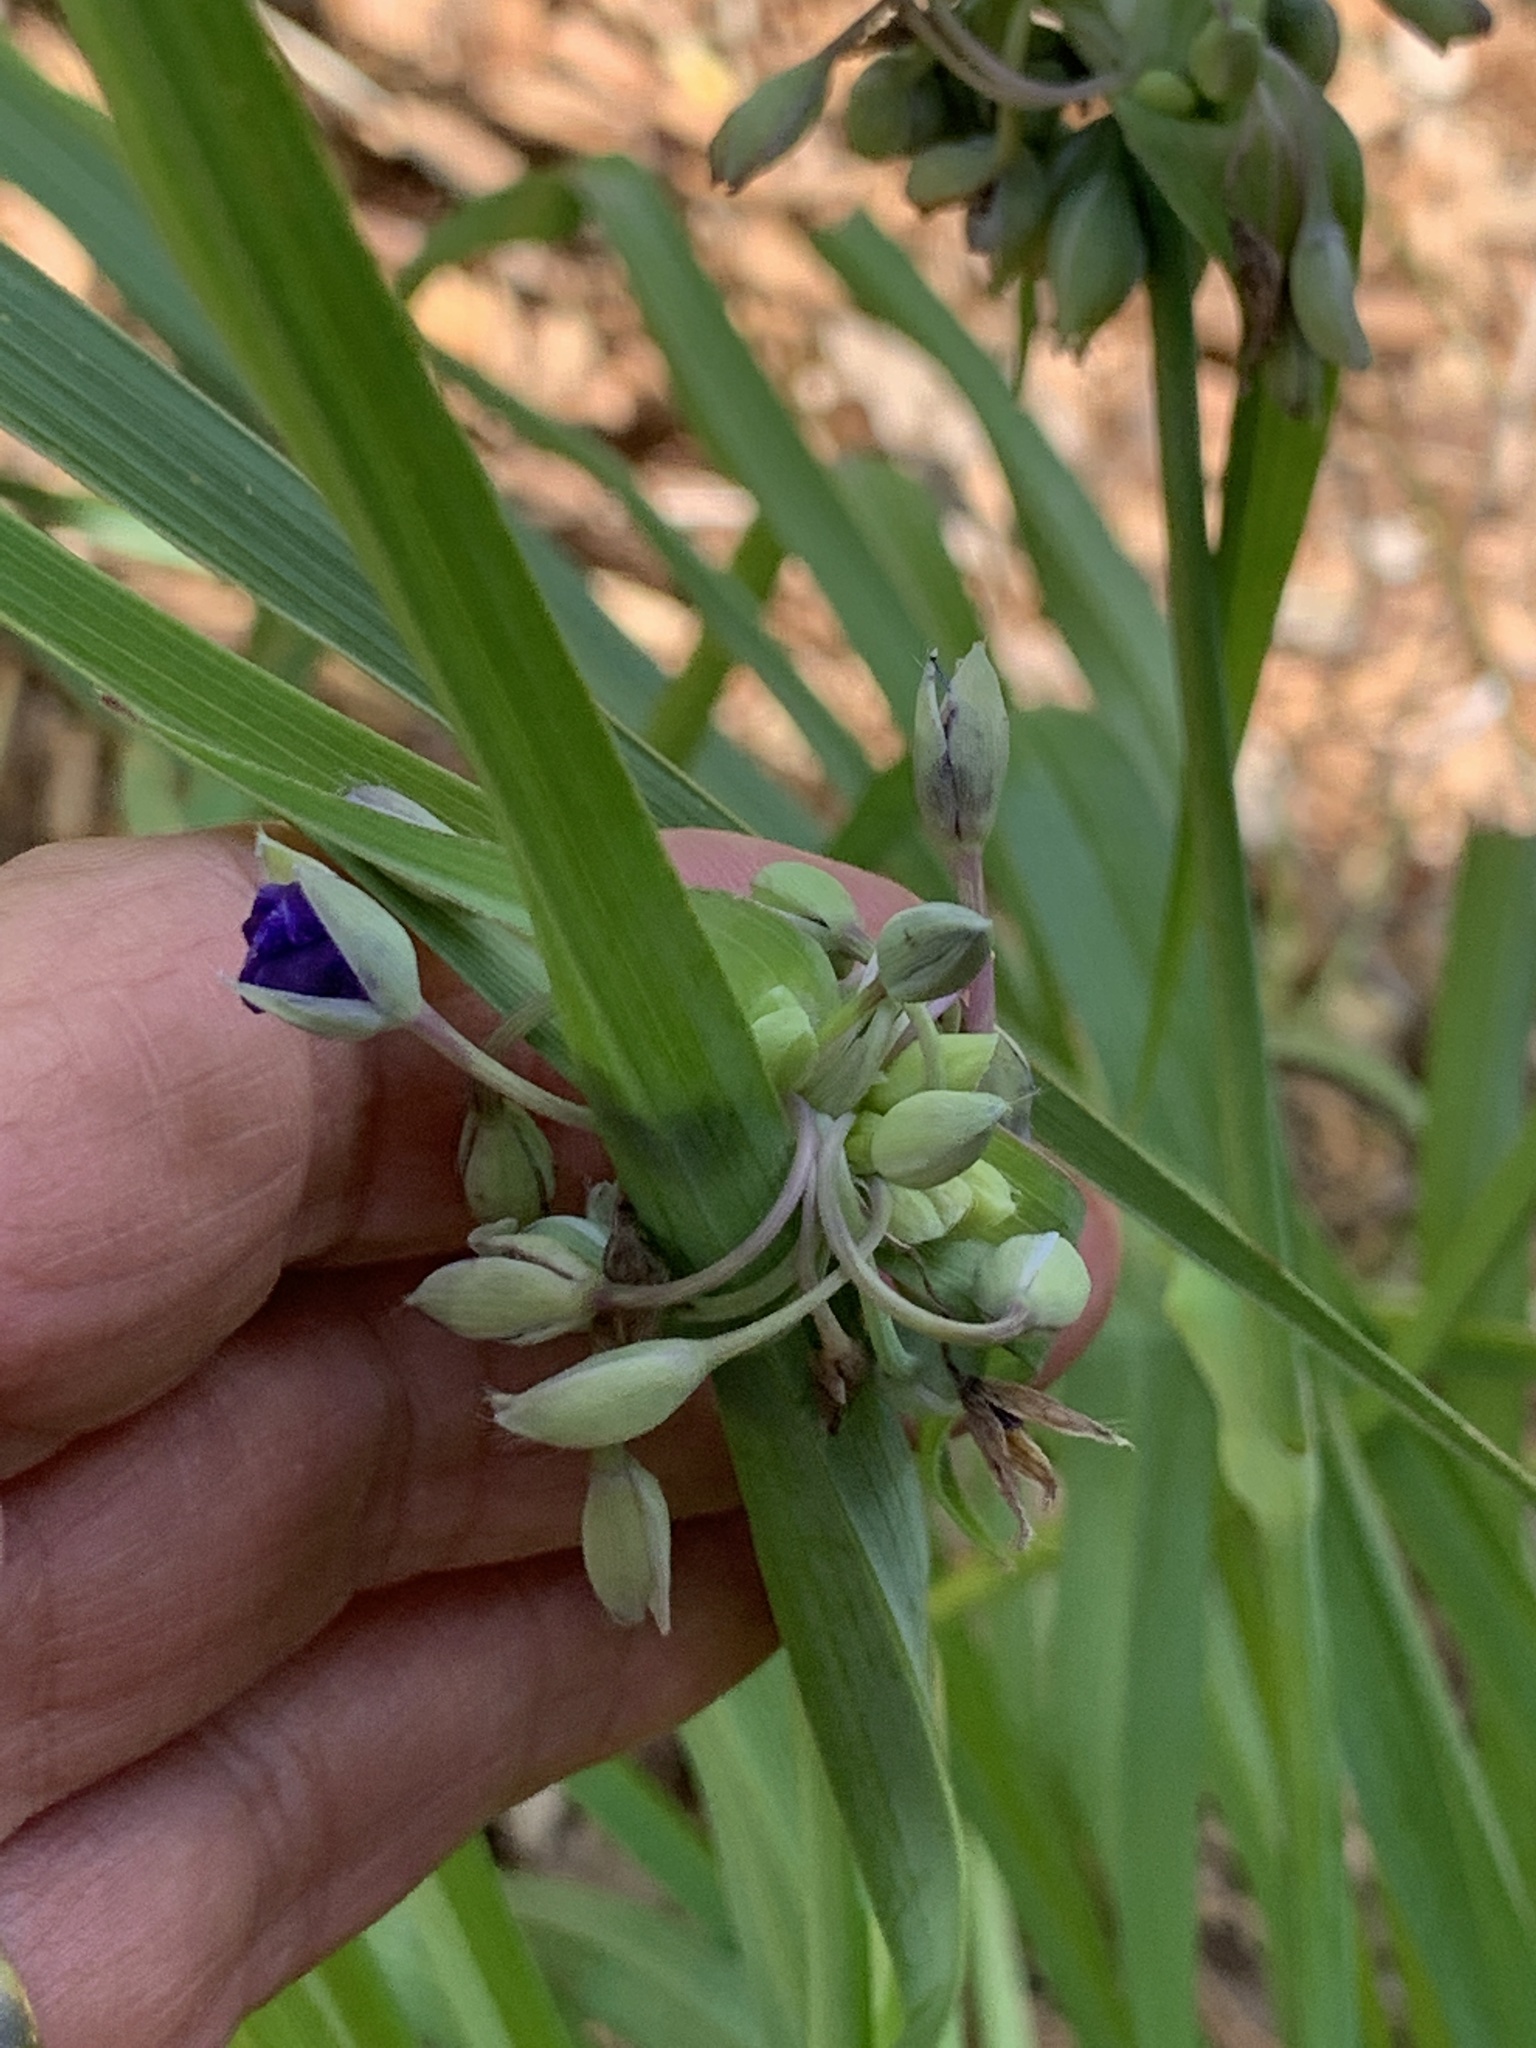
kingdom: Plantae
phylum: Tracheophyta
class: Liliopsida
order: Commelinales
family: Commelinaceae
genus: Tradescantia
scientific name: Tradescantia ohiensis
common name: Ohio spiderwort
